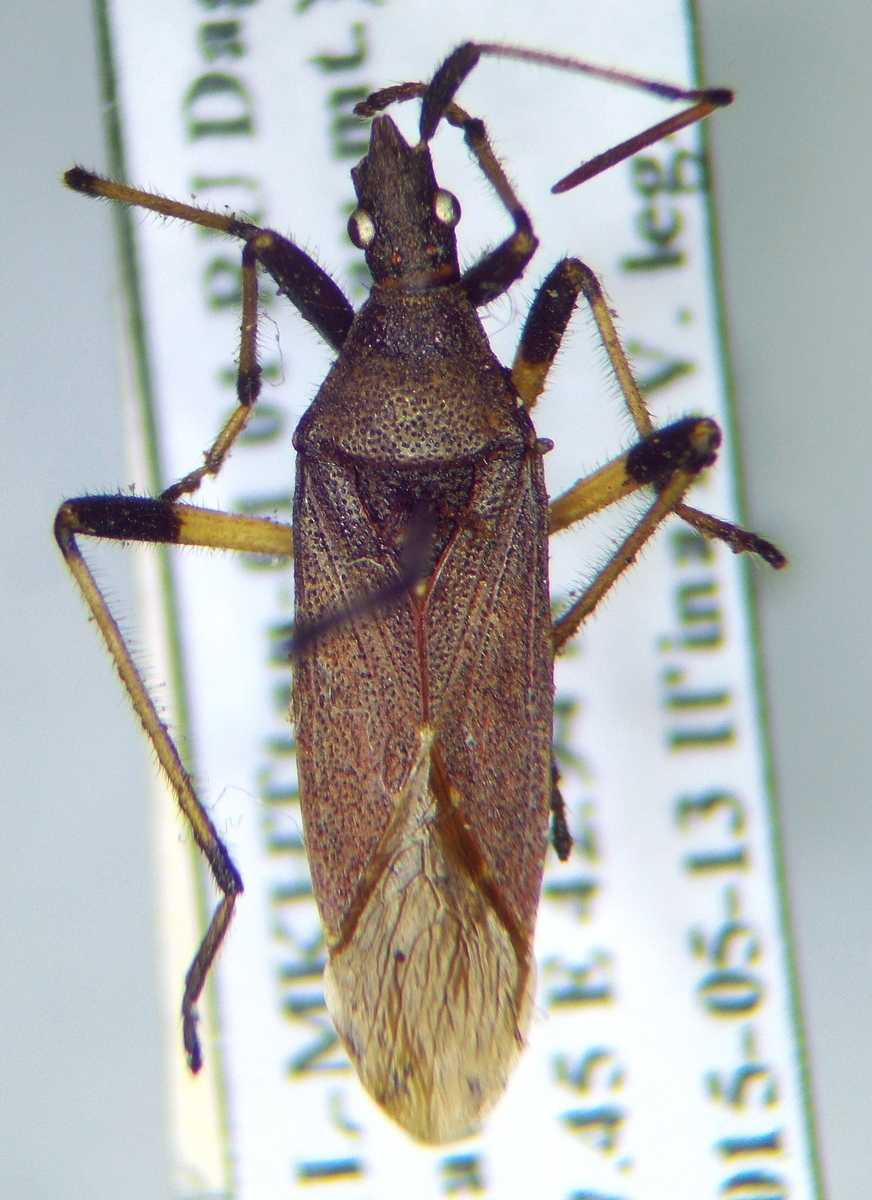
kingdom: Animalia
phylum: Arthropoda
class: Insecta
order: Hemiptera
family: Stenocephalidae
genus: Dicranocephalus
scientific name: Dicranocephalus albipes
